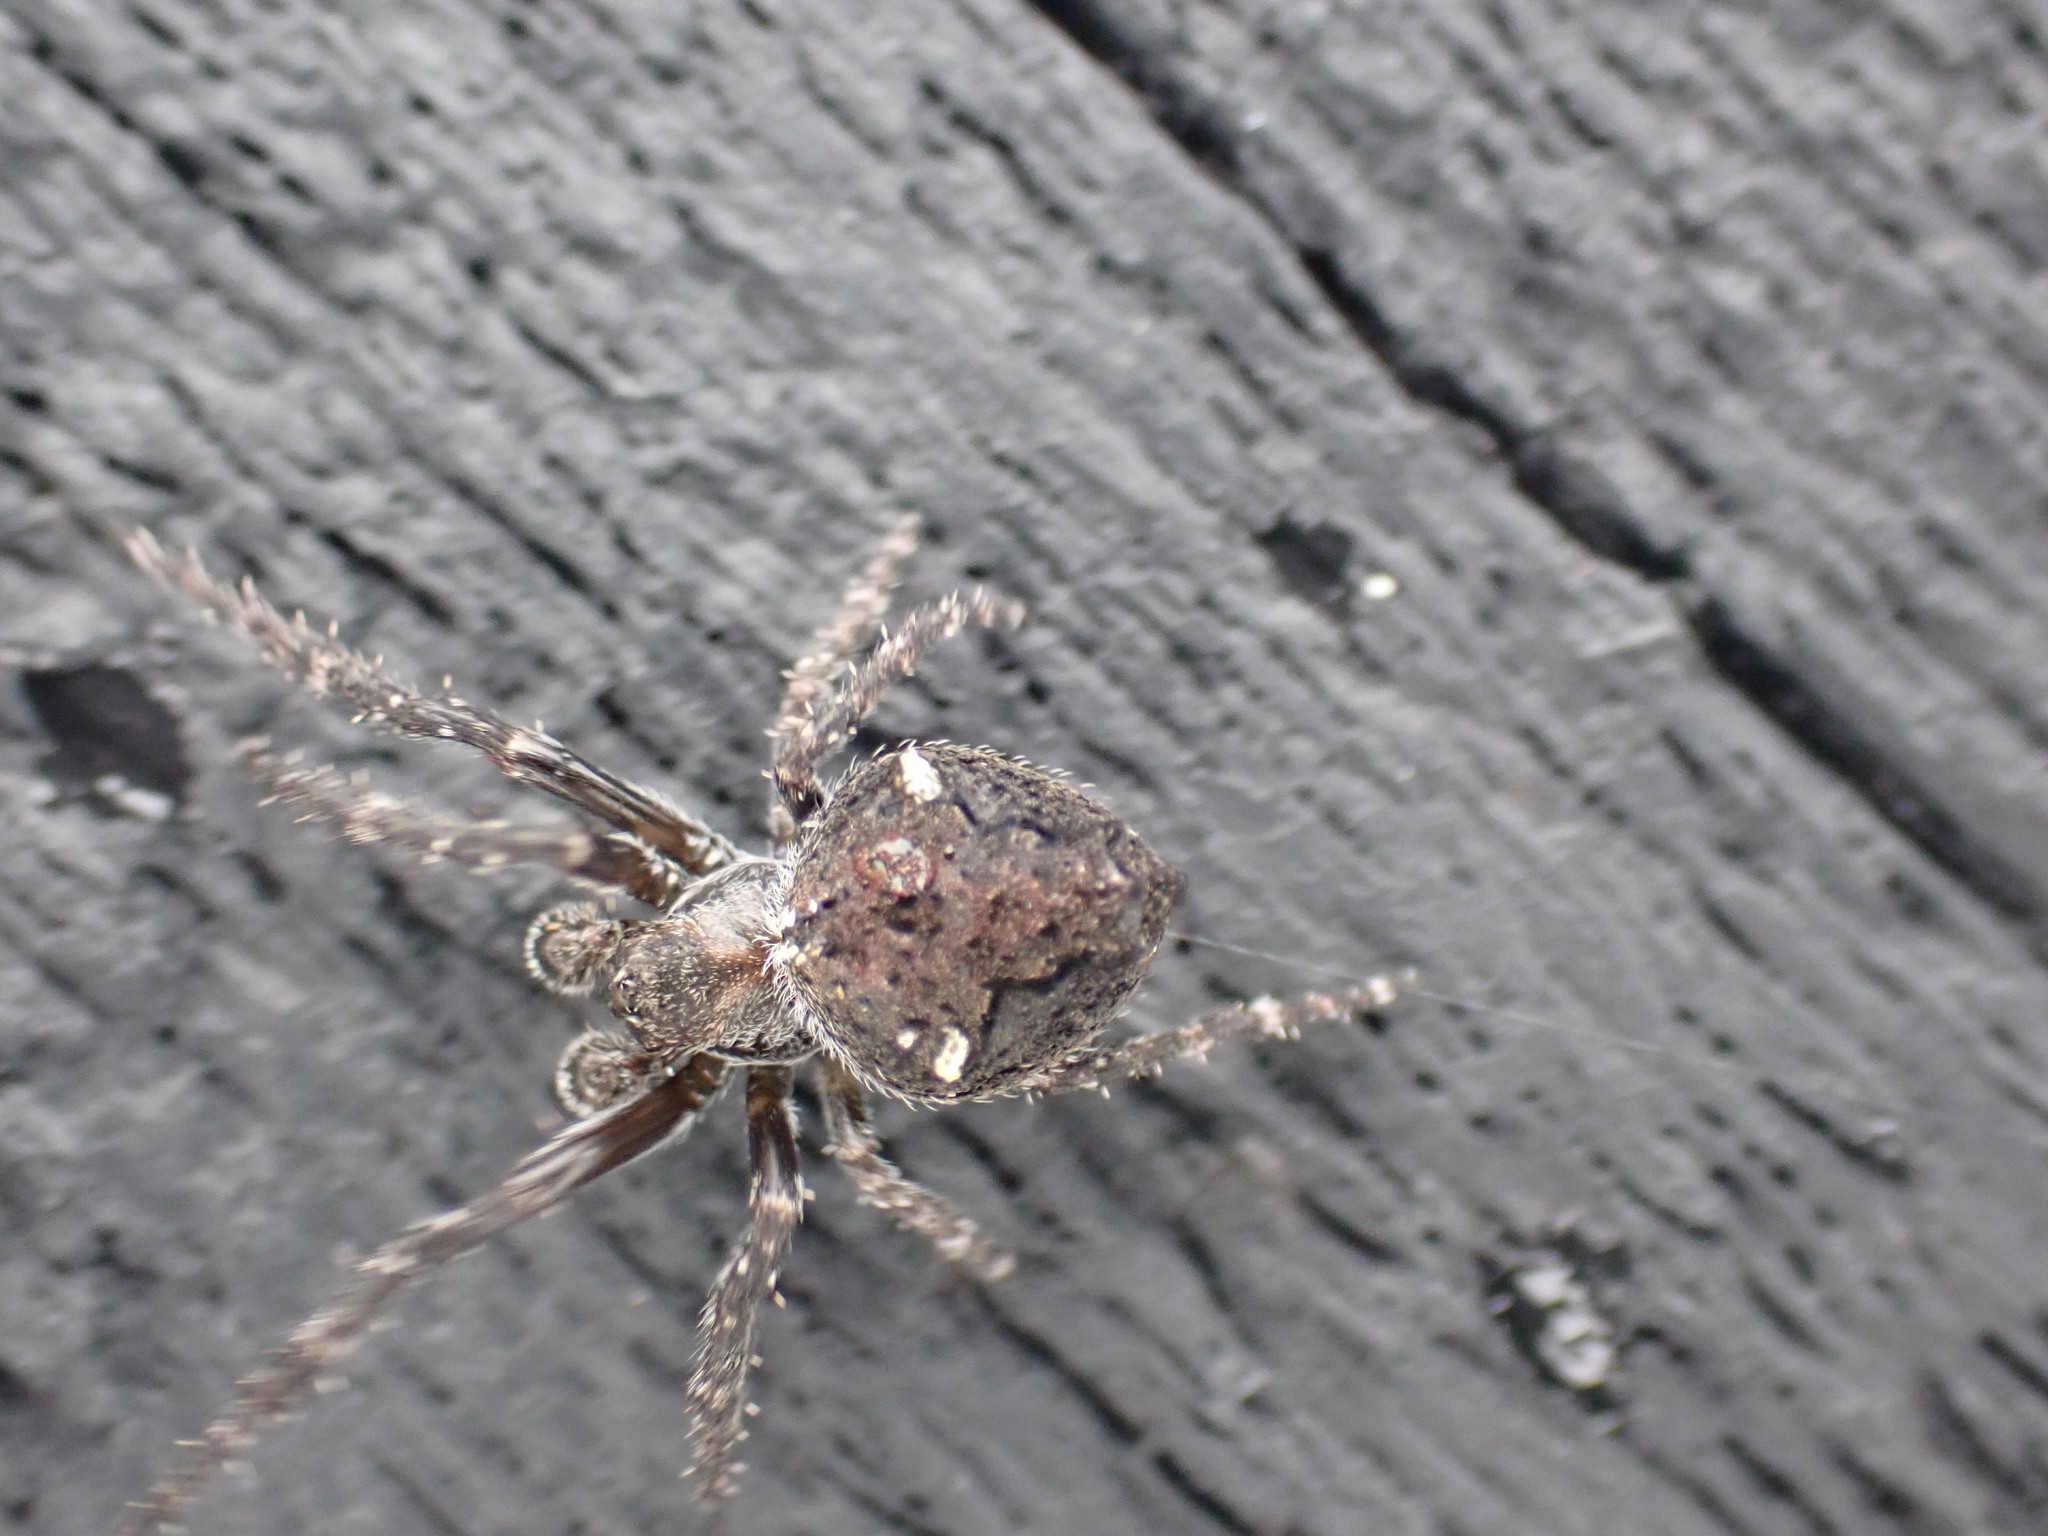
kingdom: Animalia
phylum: Arthropoda
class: Arachnida
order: Araneae
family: Araneidae
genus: Eriophora
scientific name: Eriophora pustulosa
